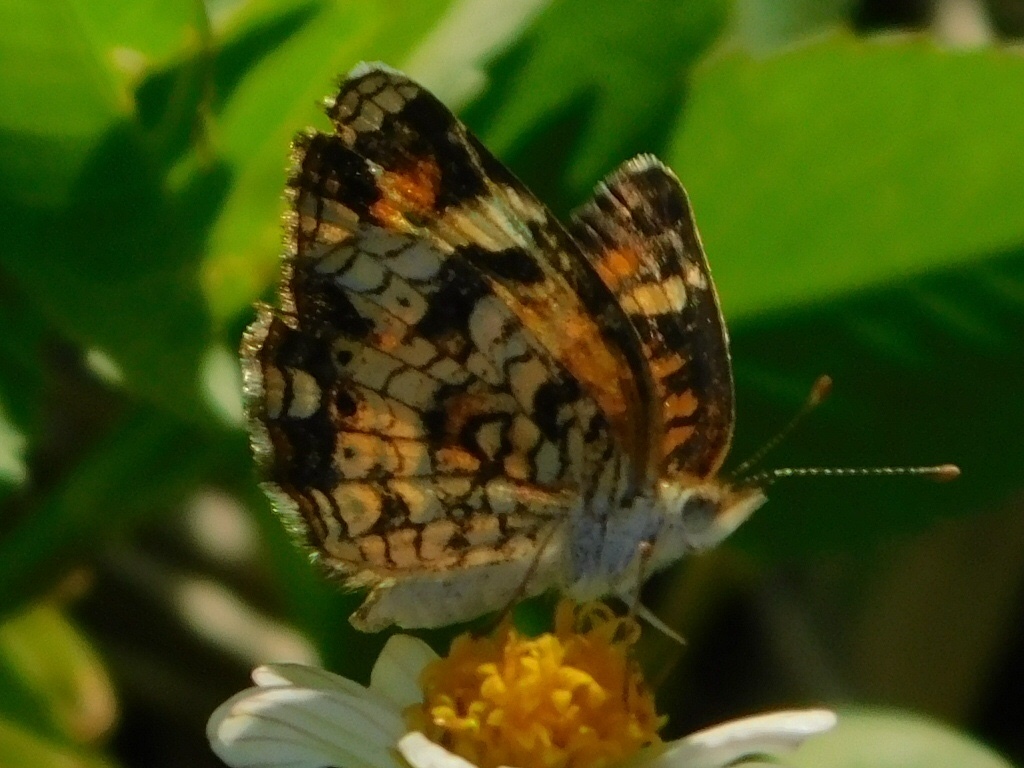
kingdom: Animalia
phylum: Arthropoda
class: Insecta
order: Lepidoptera
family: Nymphalidae
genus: Phyciodes
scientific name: Phyciodes phaon
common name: Phaon crescent
